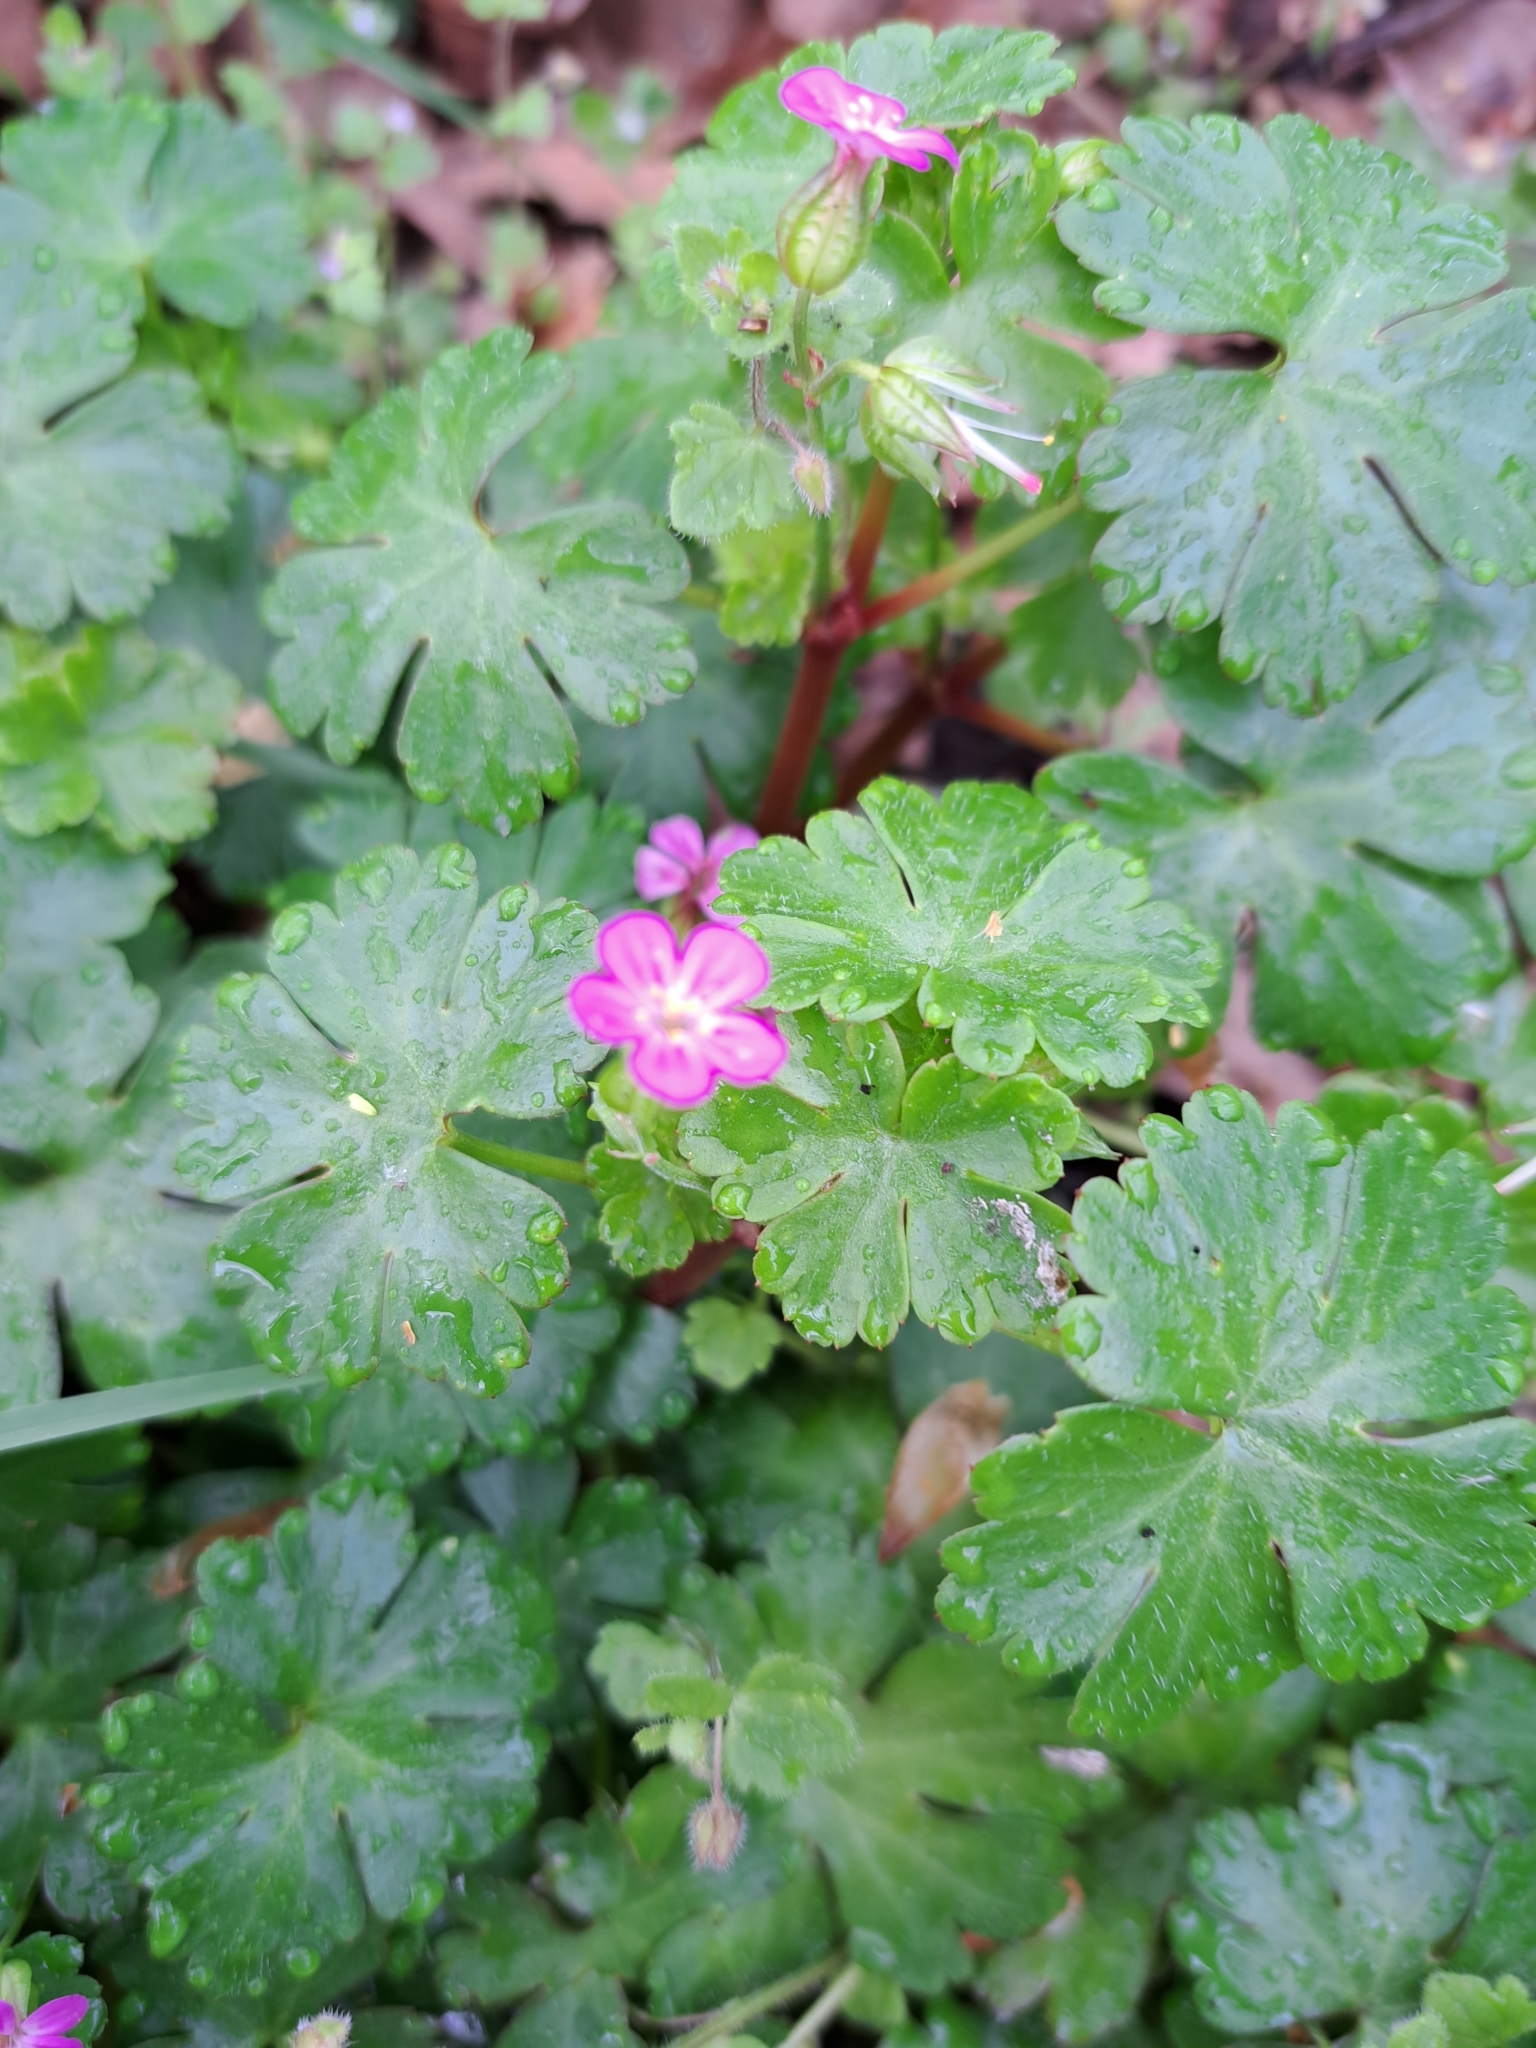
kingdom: Plantae
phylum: Tracheophyta
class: Magnoliopsida
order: Geraniales
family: Geraniaceae
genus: Geranium
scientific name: Geranium lucidum
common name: Shining crane's-bill
